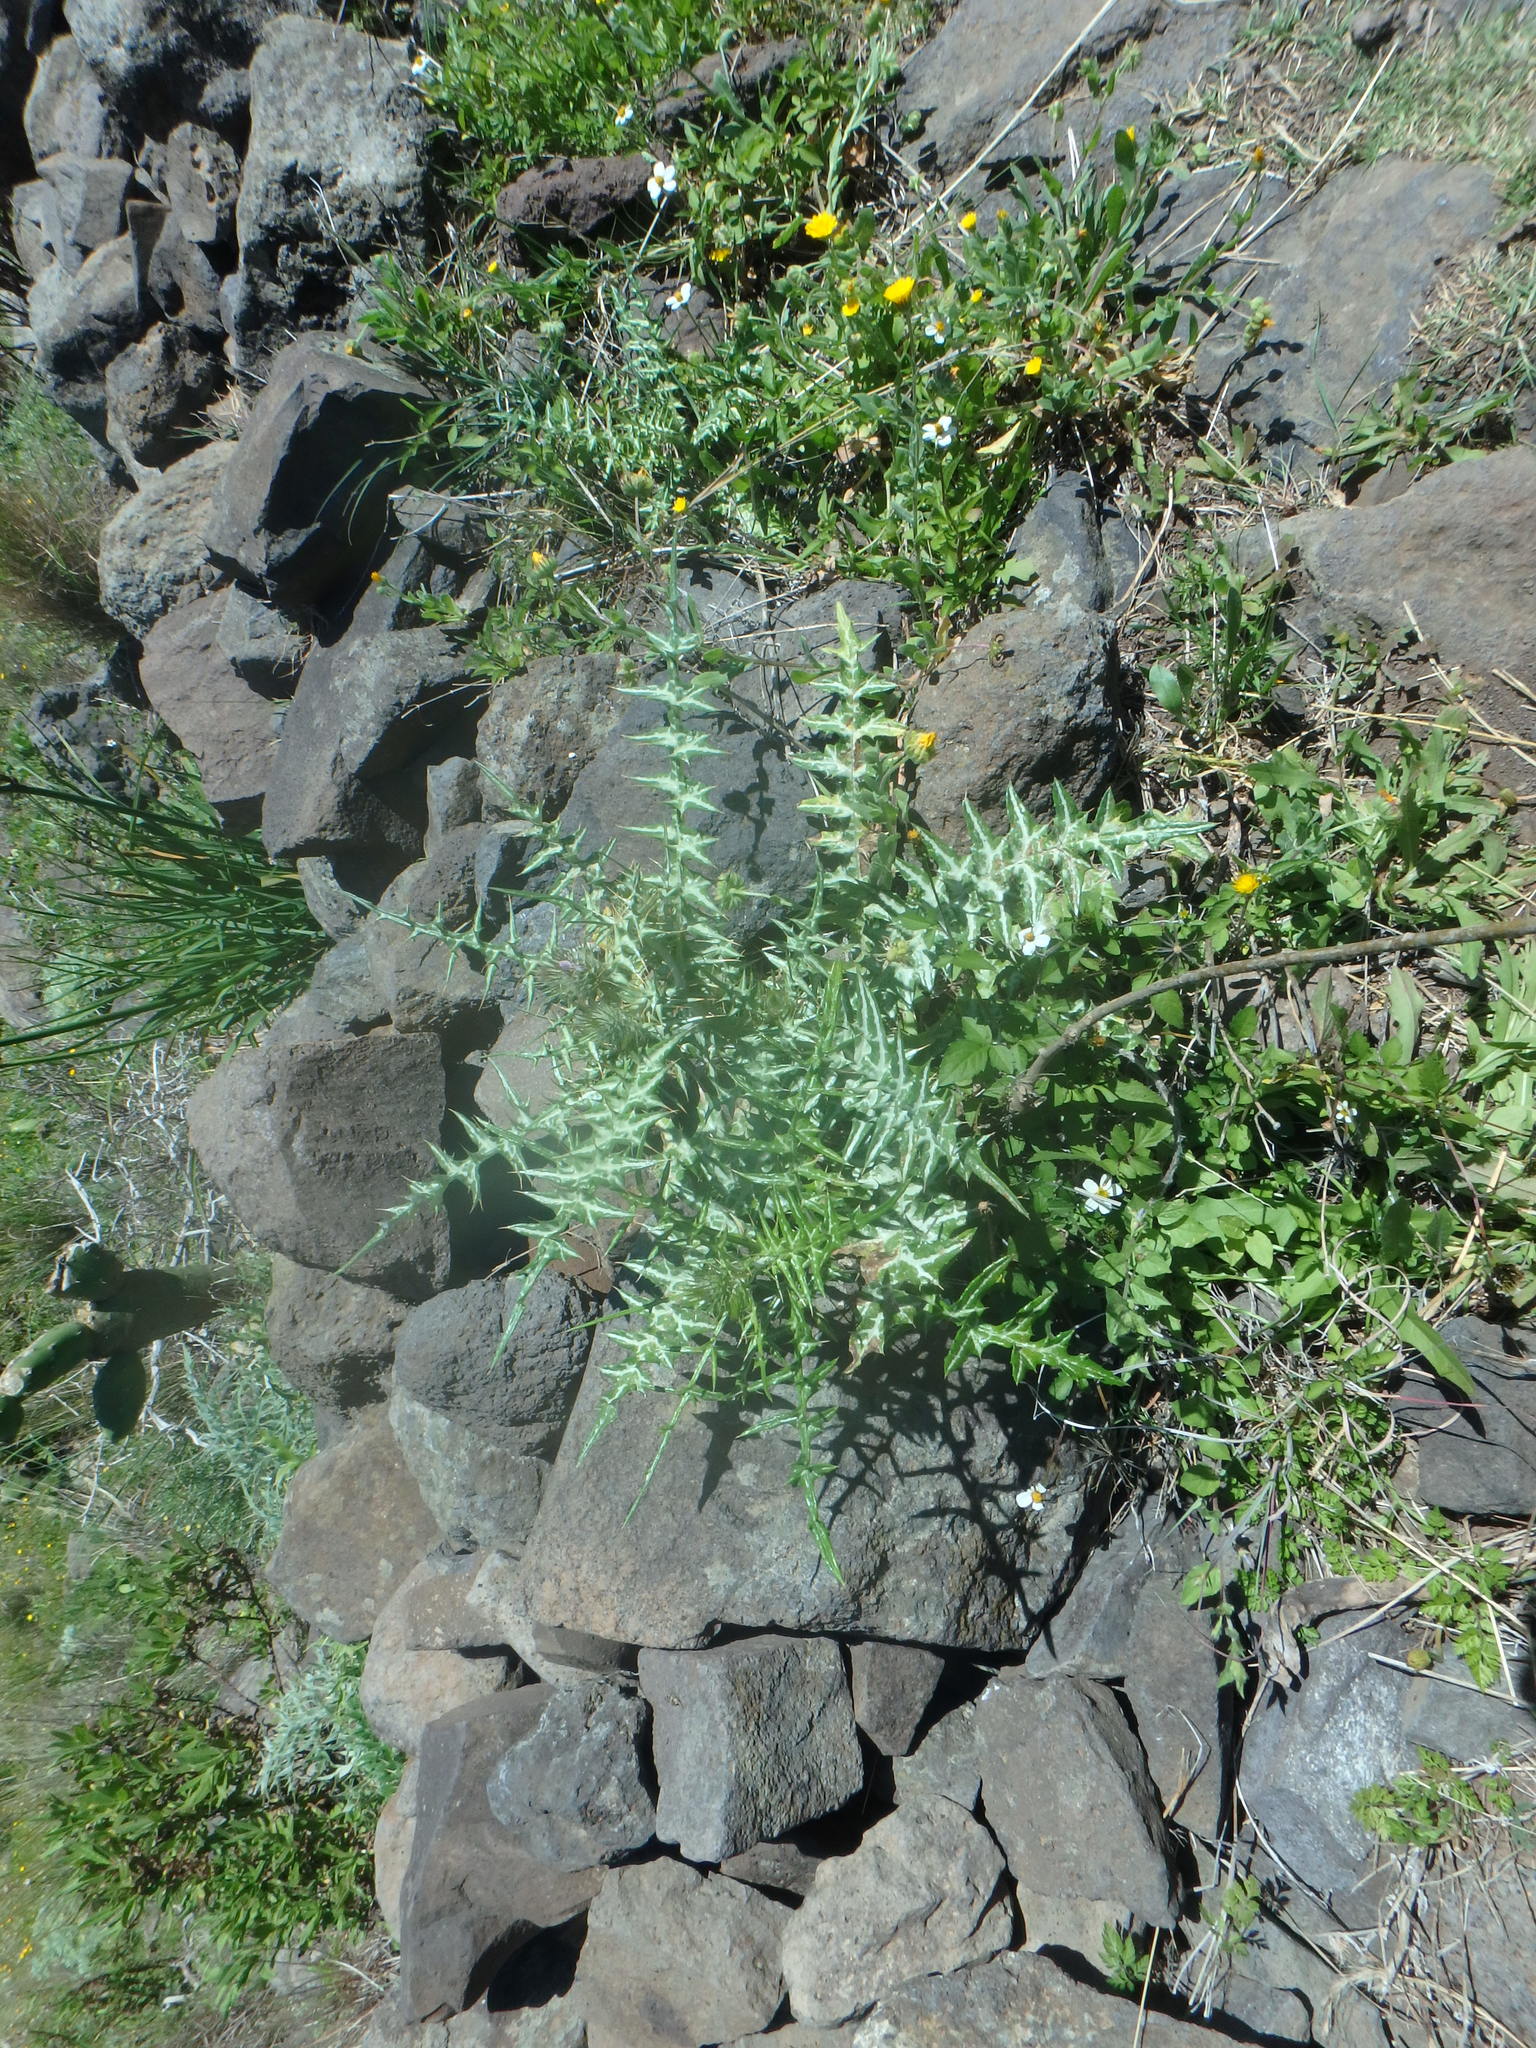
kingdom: Plantae
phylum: Tracheophyta
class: Magnoliopsida
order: Asterales
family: Asteraceae
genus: Galactites
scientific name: Galactites tomentosa
